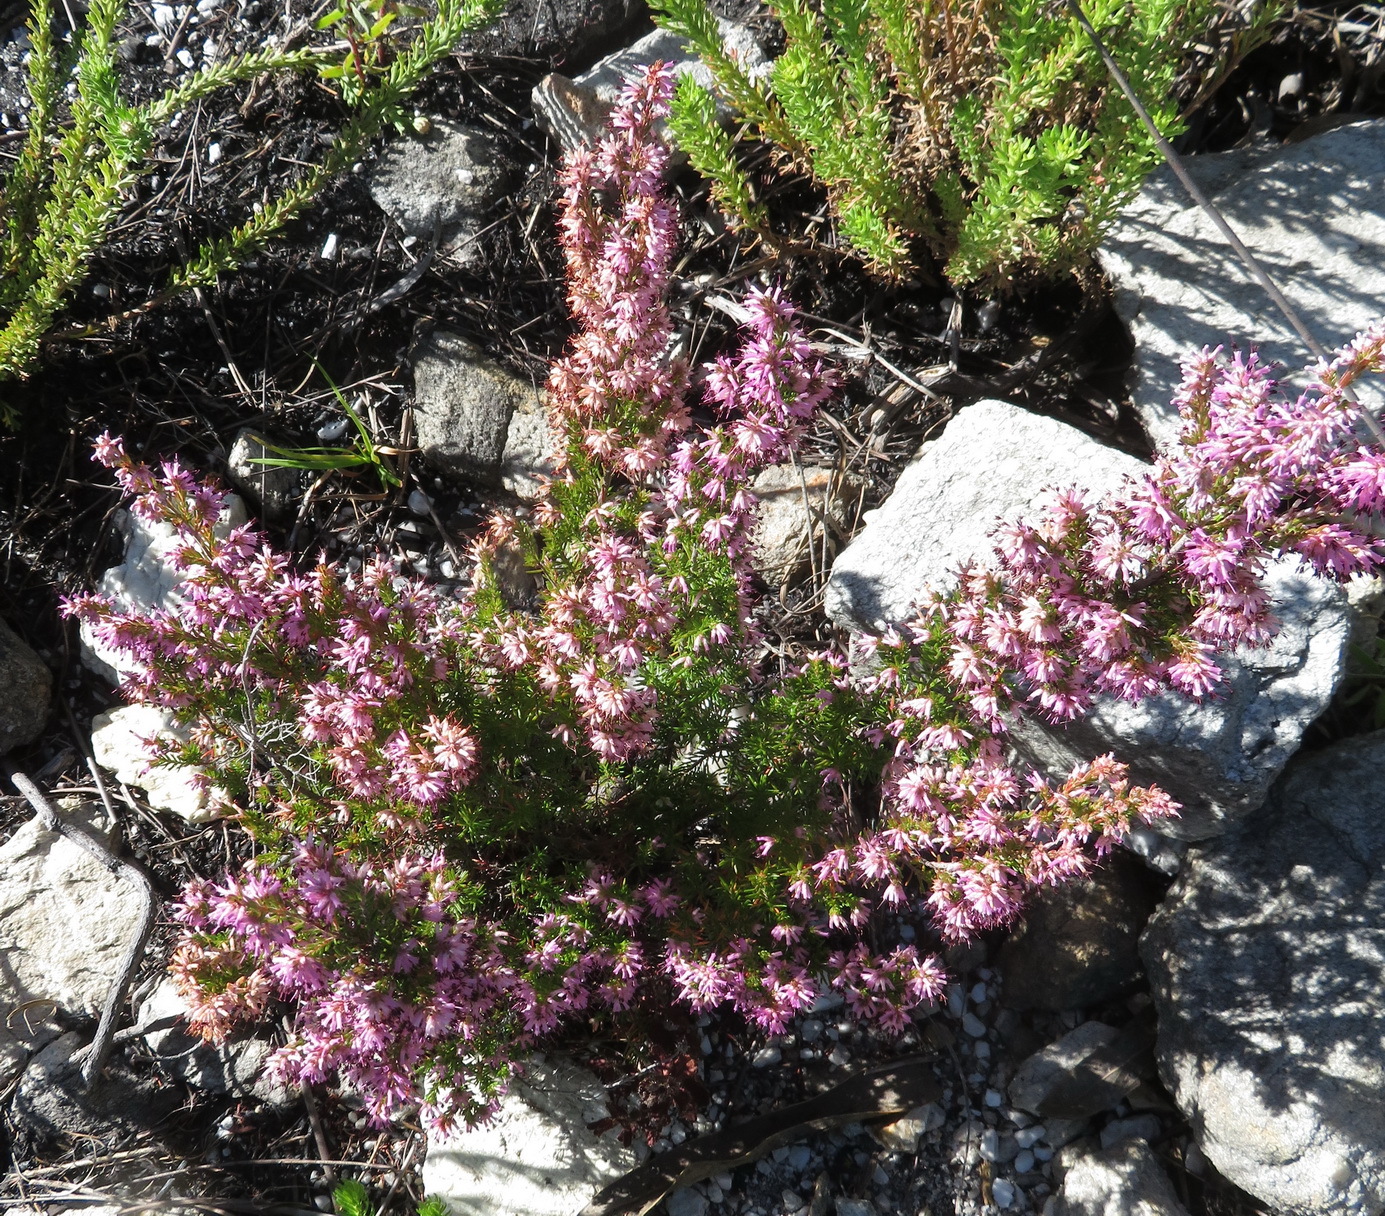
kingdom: Plantae
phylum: Tracheophyta
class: Magnoliopsida
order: Ericales
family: Ericaceae
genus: Erica
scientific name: Erica similis
